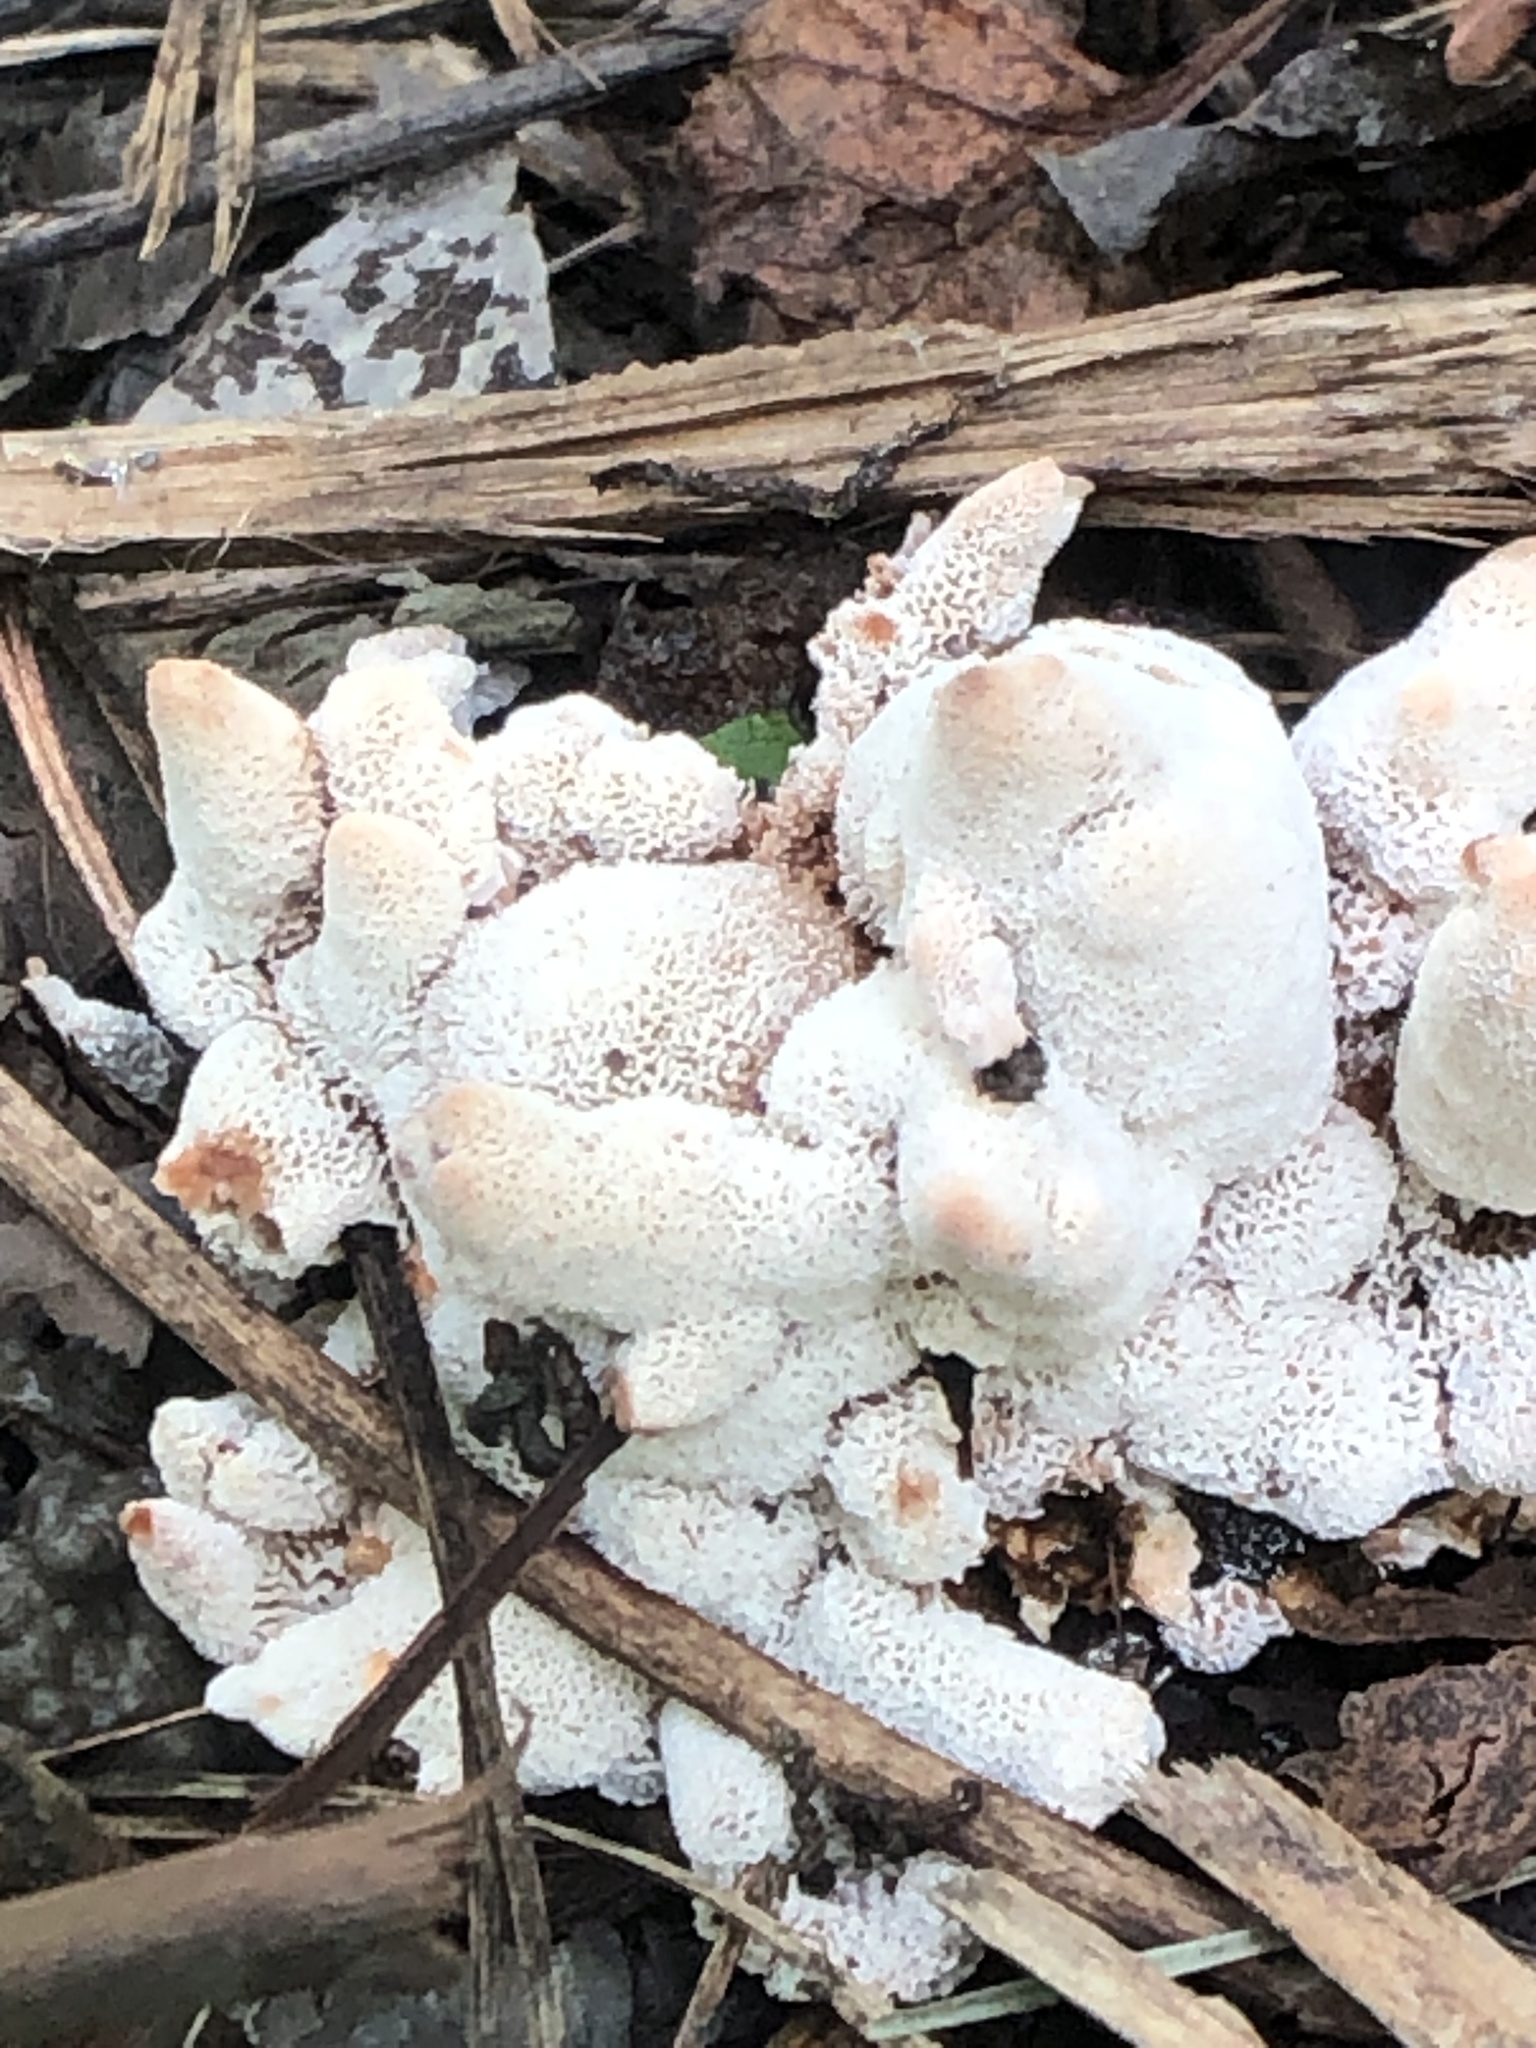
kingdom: Fungi
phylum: Basidiomycota
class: Agaricomycetes
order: Polyporales
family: Podoscyphaceae
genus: Abortiporus
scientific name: Abortiporus biennis
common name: Blushing rosette
